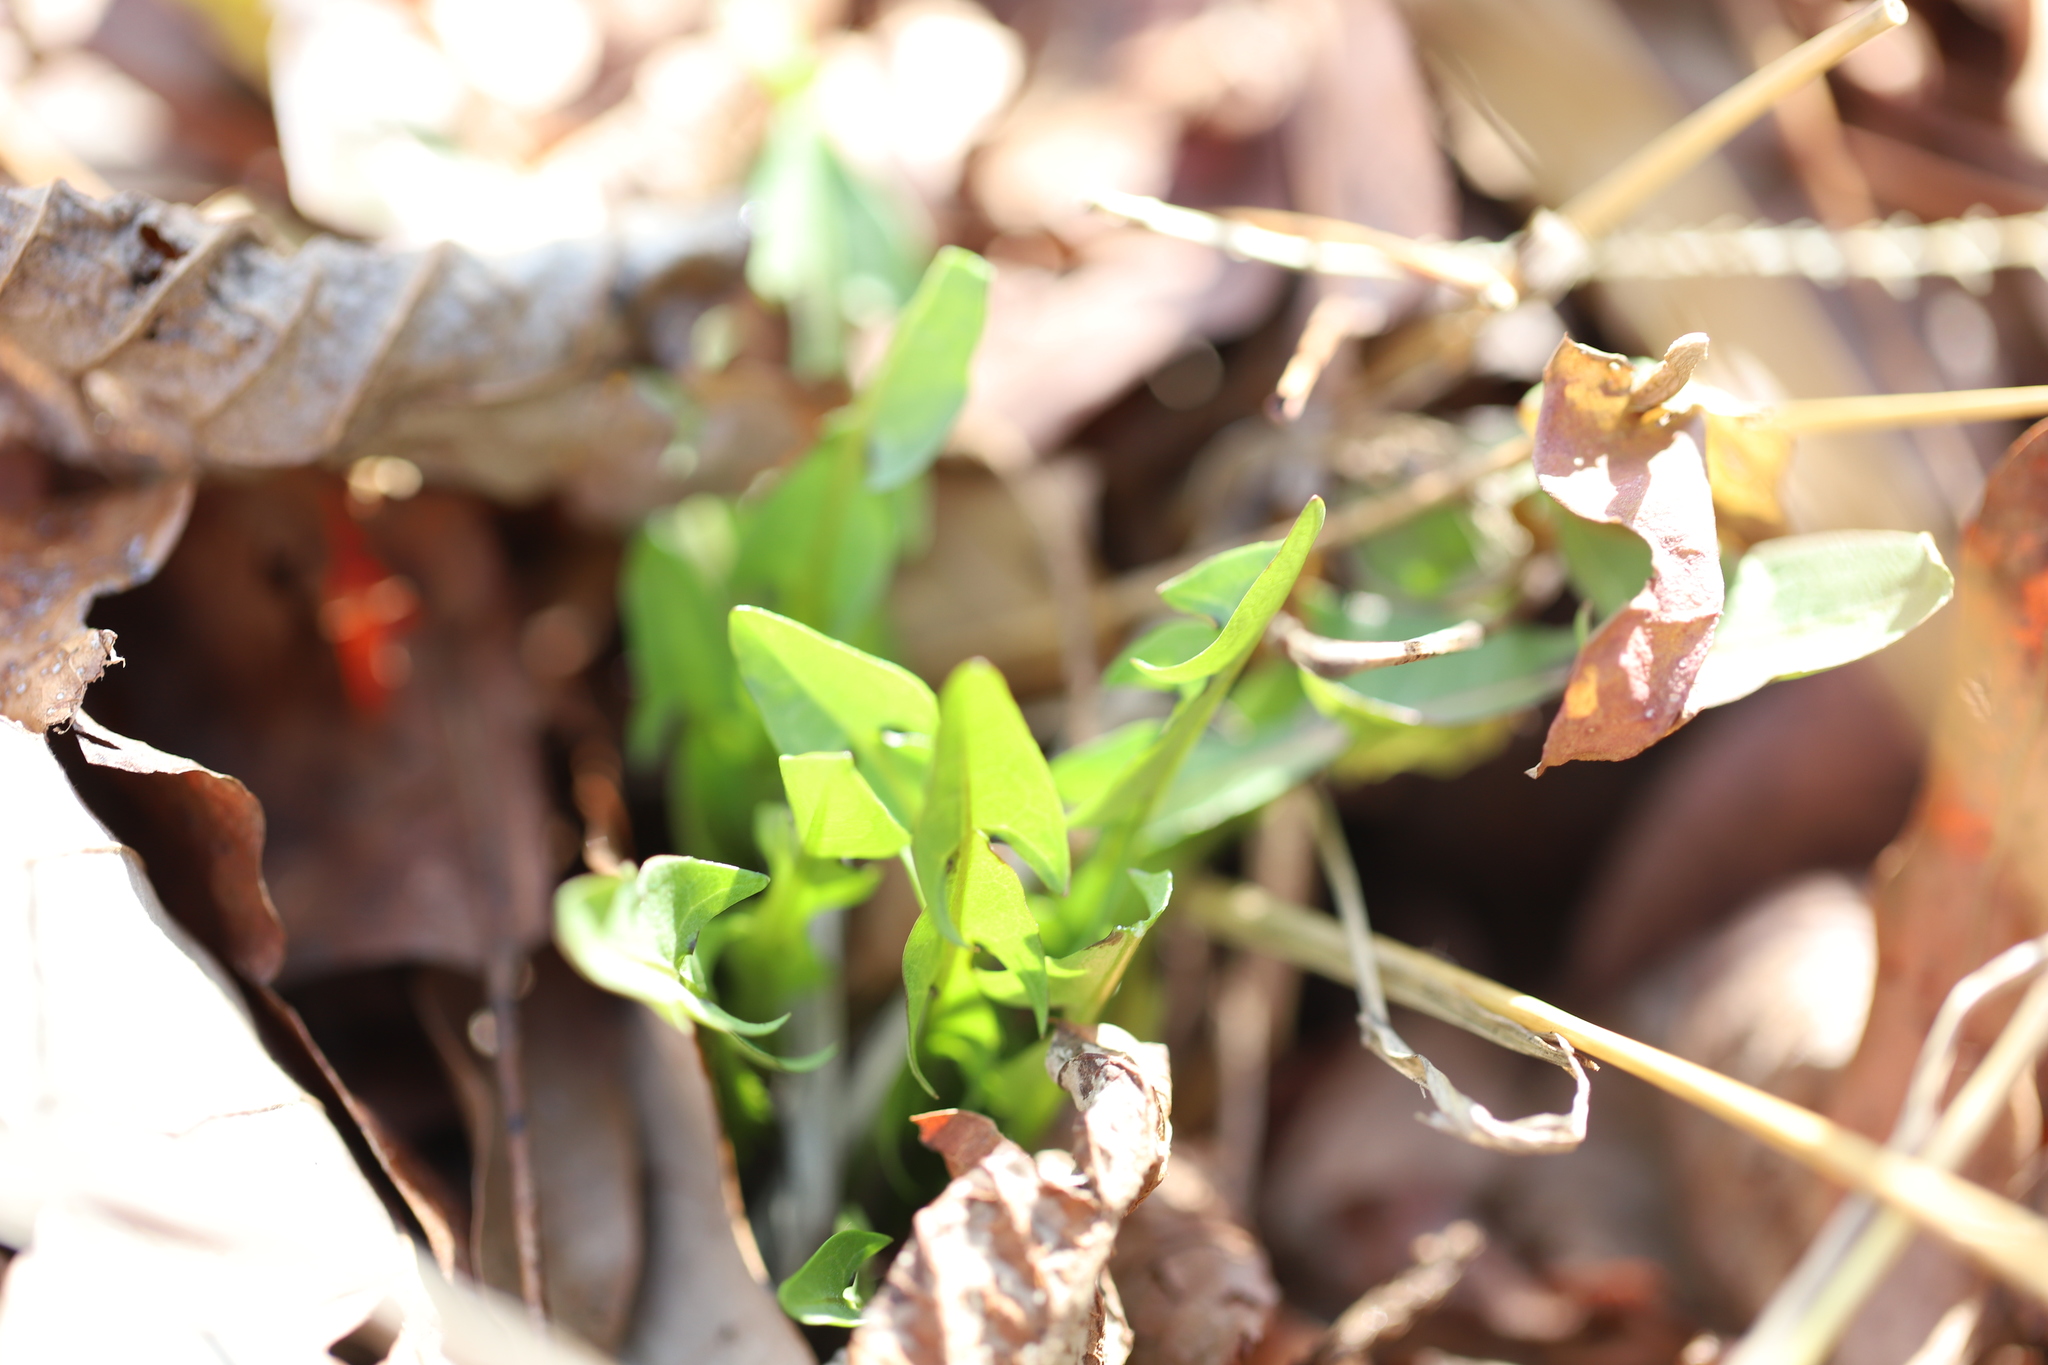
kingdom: Plantae
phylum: Tracheophyta
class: Magnoliopsida
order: Asterales
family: Asteraceae
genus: Taraxacum
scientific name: Taraxacum officinale
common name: Common dandelion
